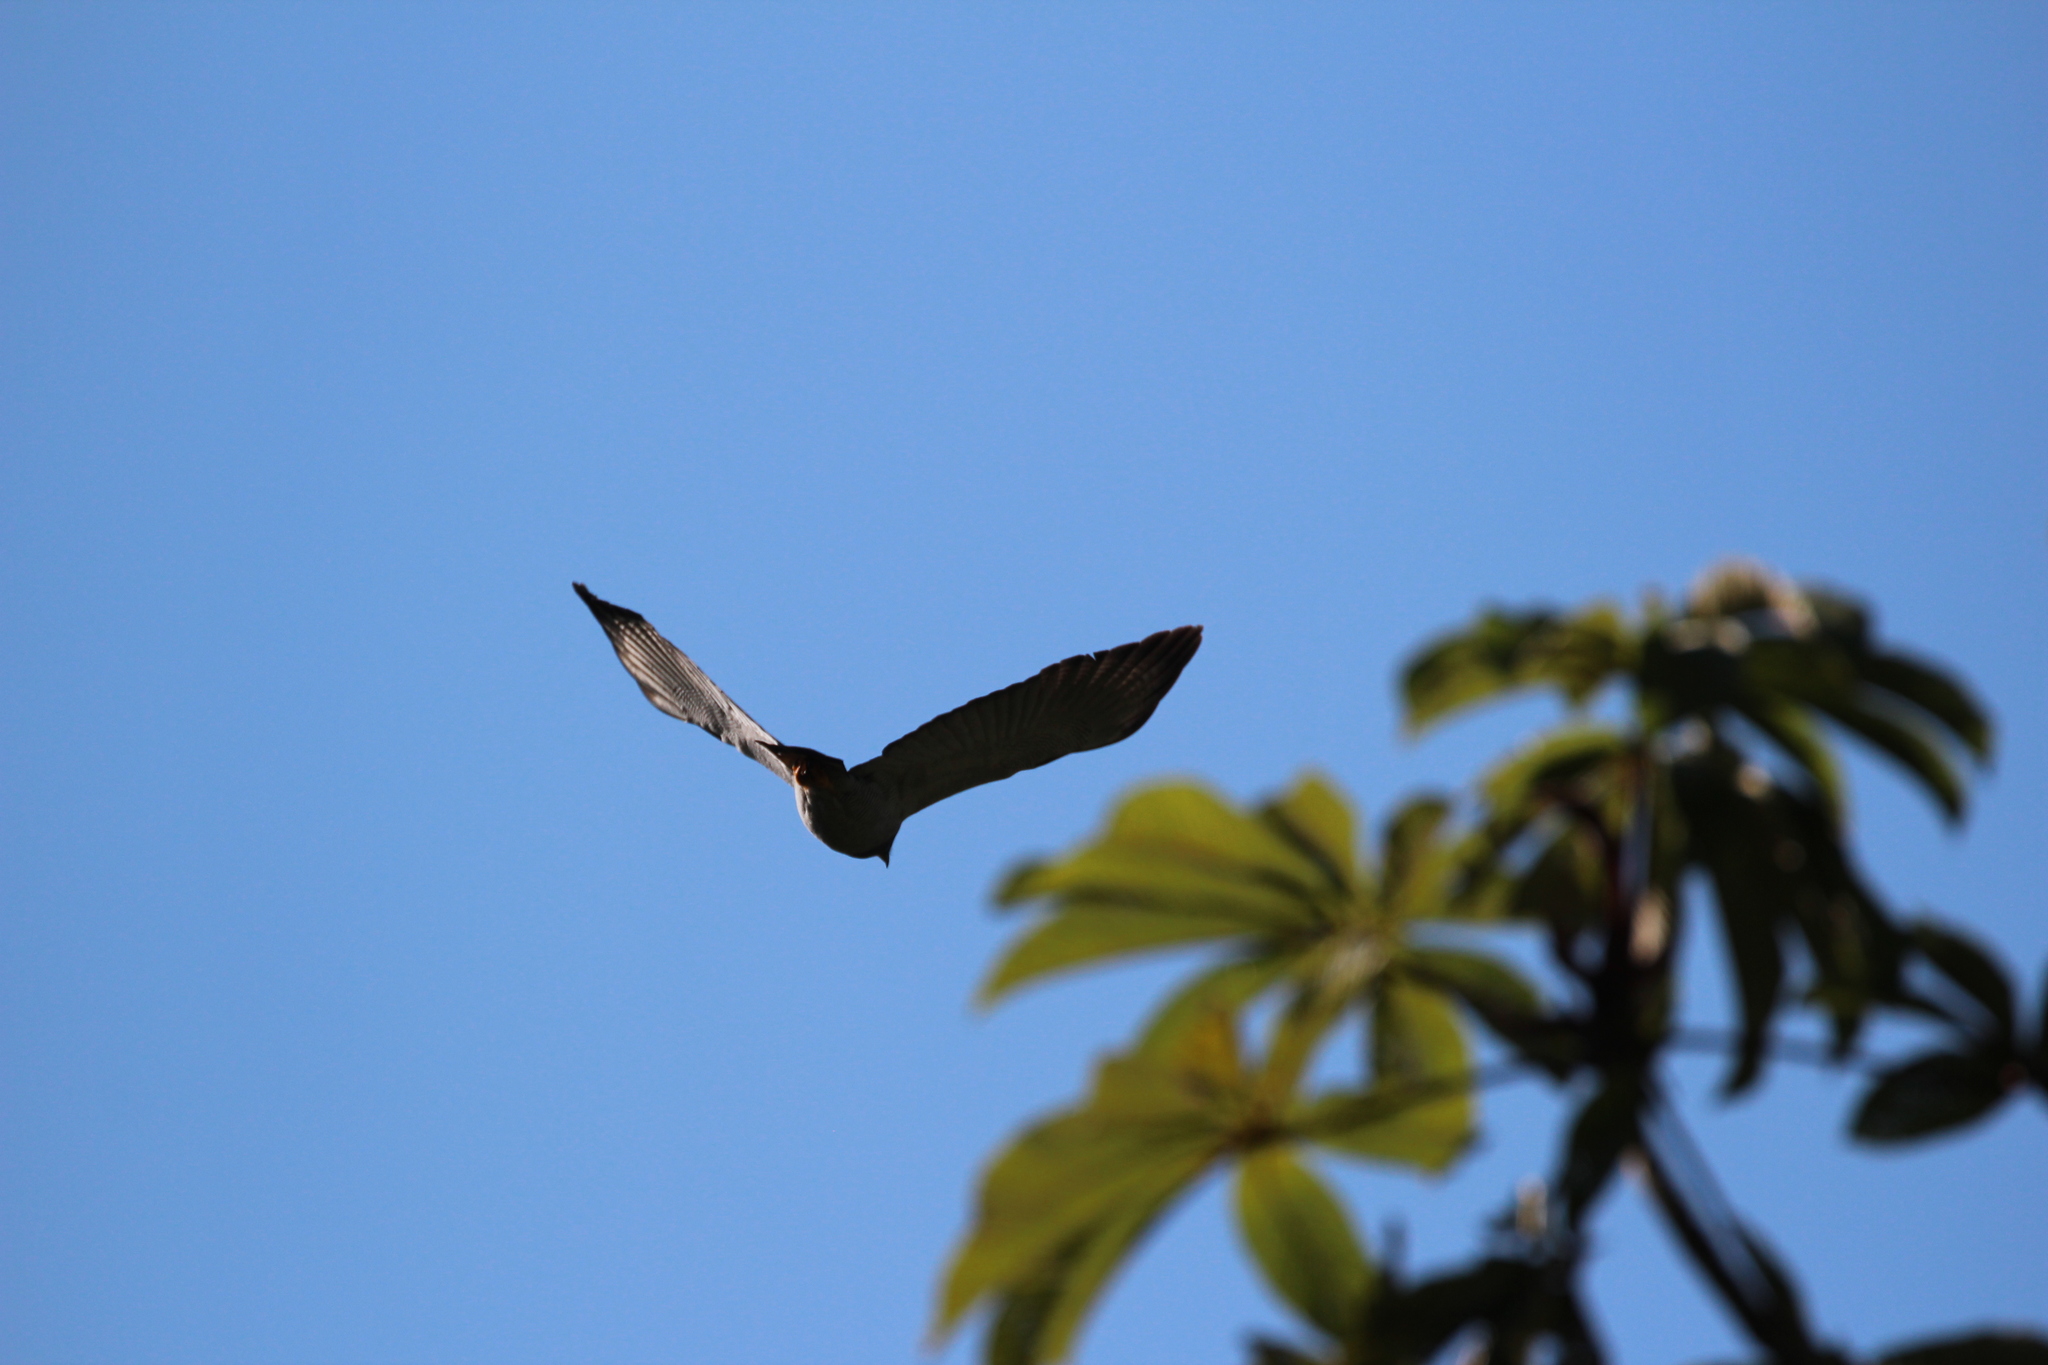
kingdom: Animalia
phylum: Chordata
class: Aves
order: Accipitriformes
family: Accipitridae
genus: Leucopternis
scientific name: Leucopternis princeps
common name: Barred hawk
